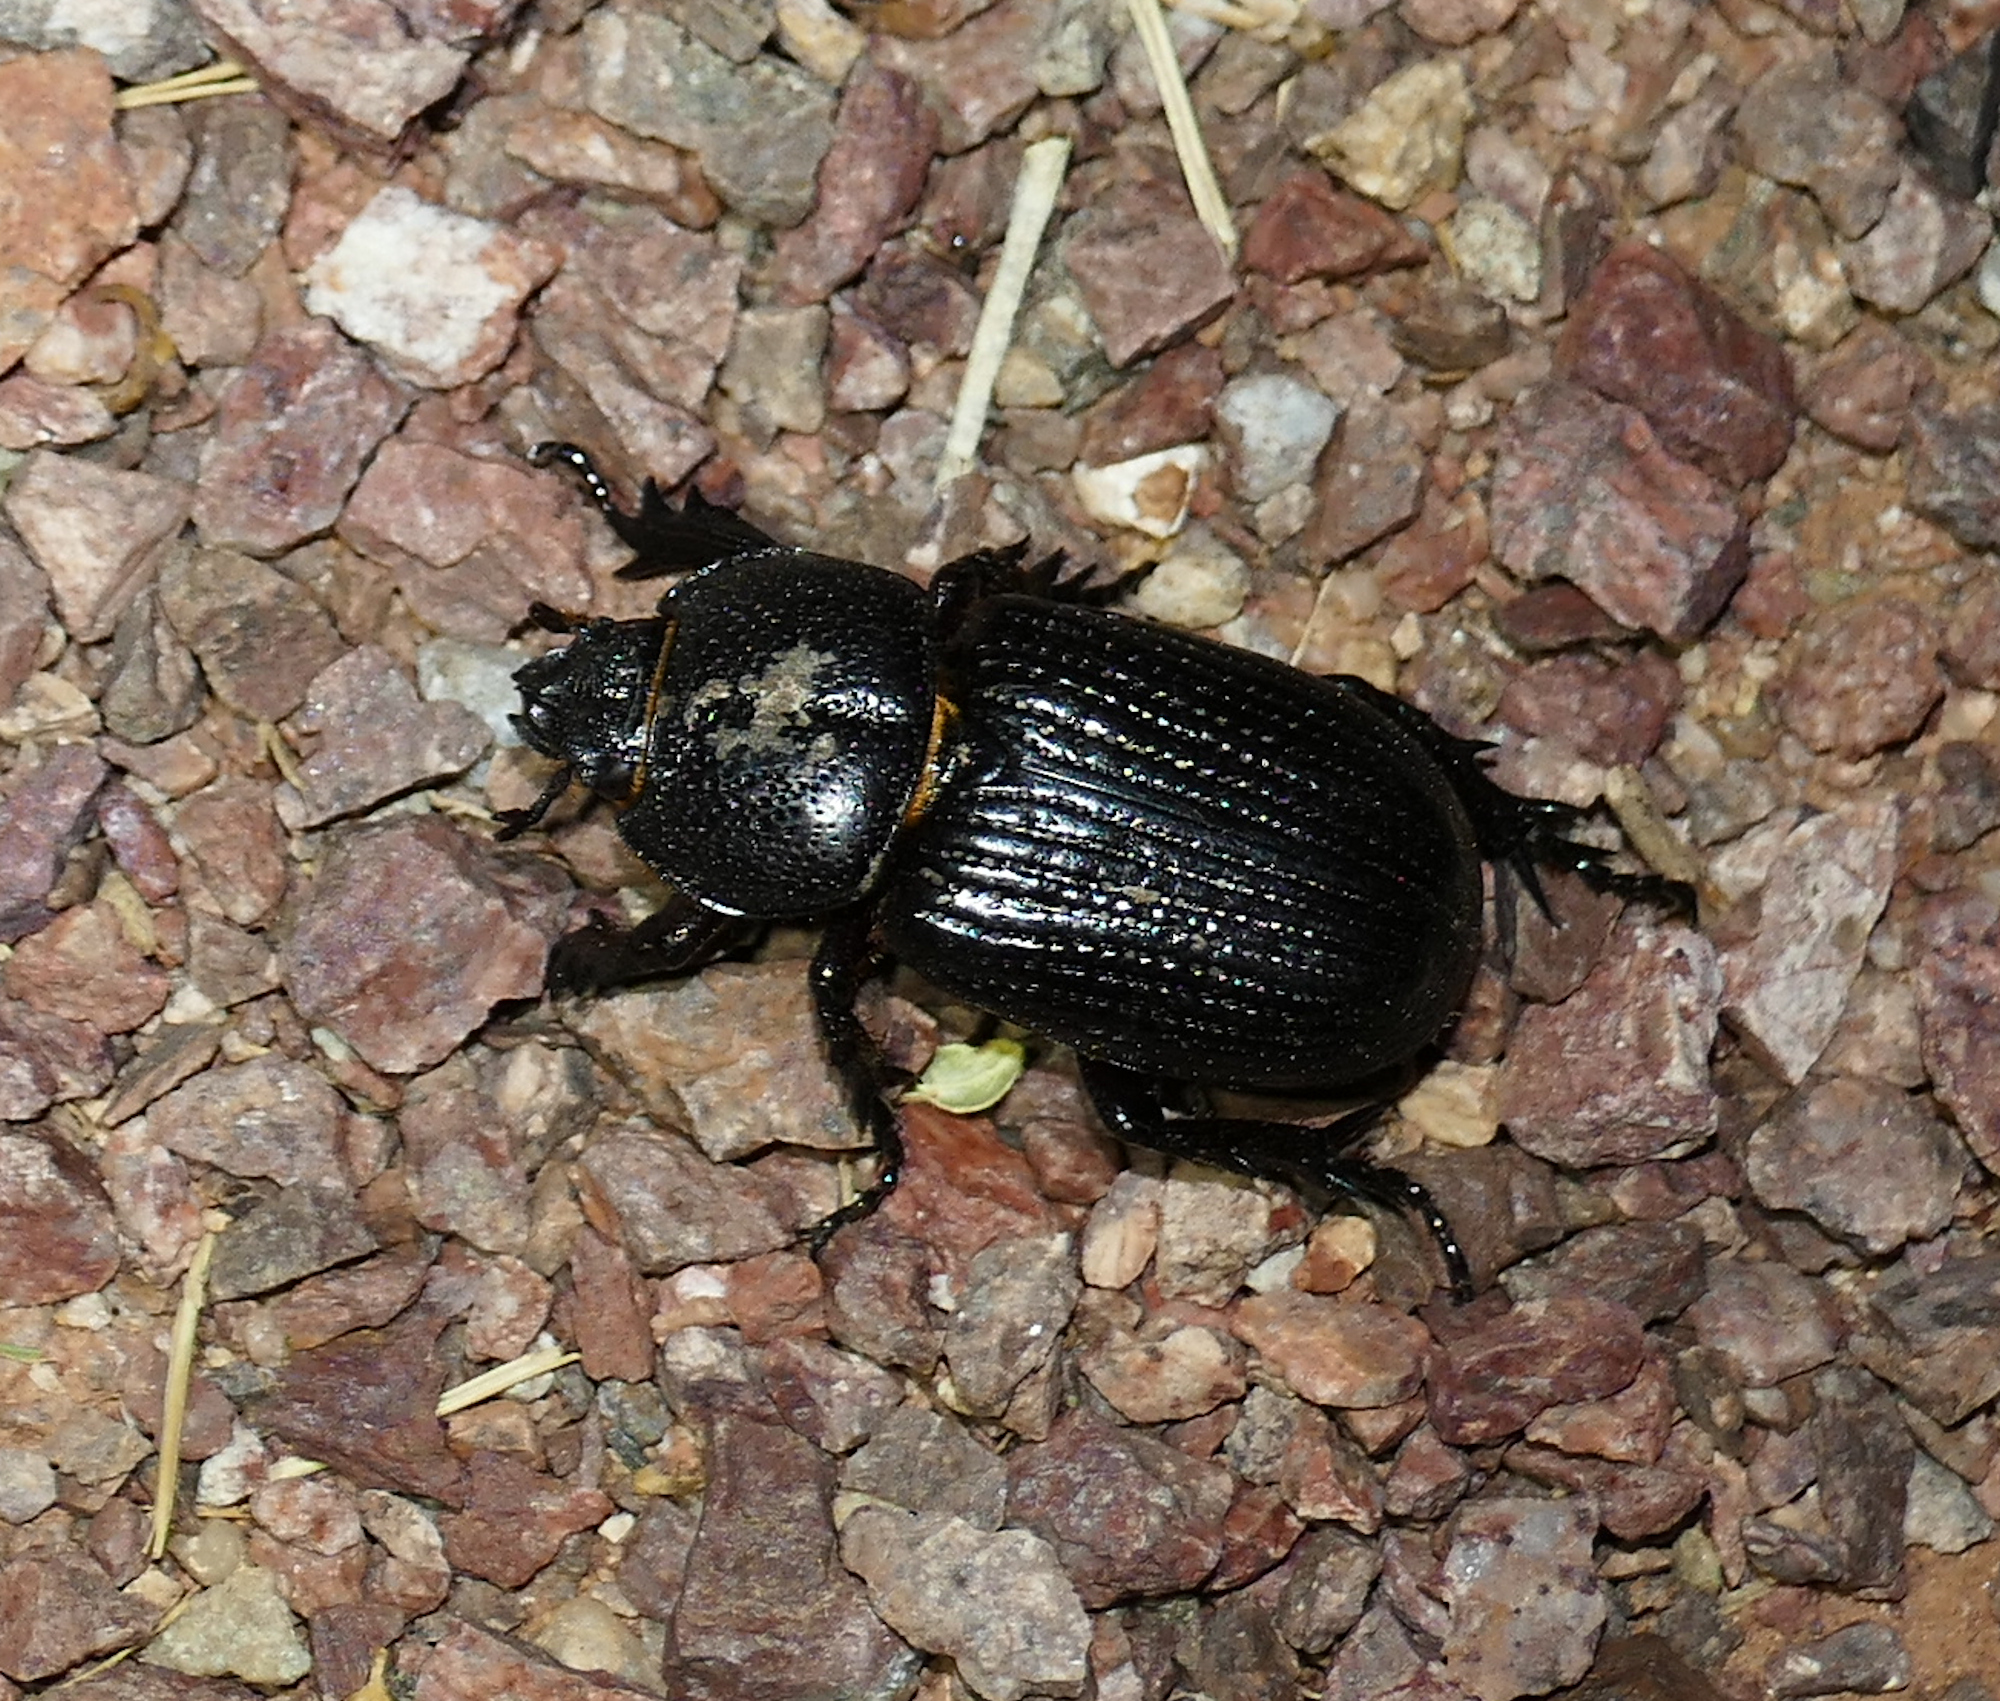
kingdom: Animalia
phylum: Arthropoda
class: Insecta
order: Coleoptera
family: Scarabaeidae
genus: Hemiphileurus
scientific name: Hemiphileurus illatus
